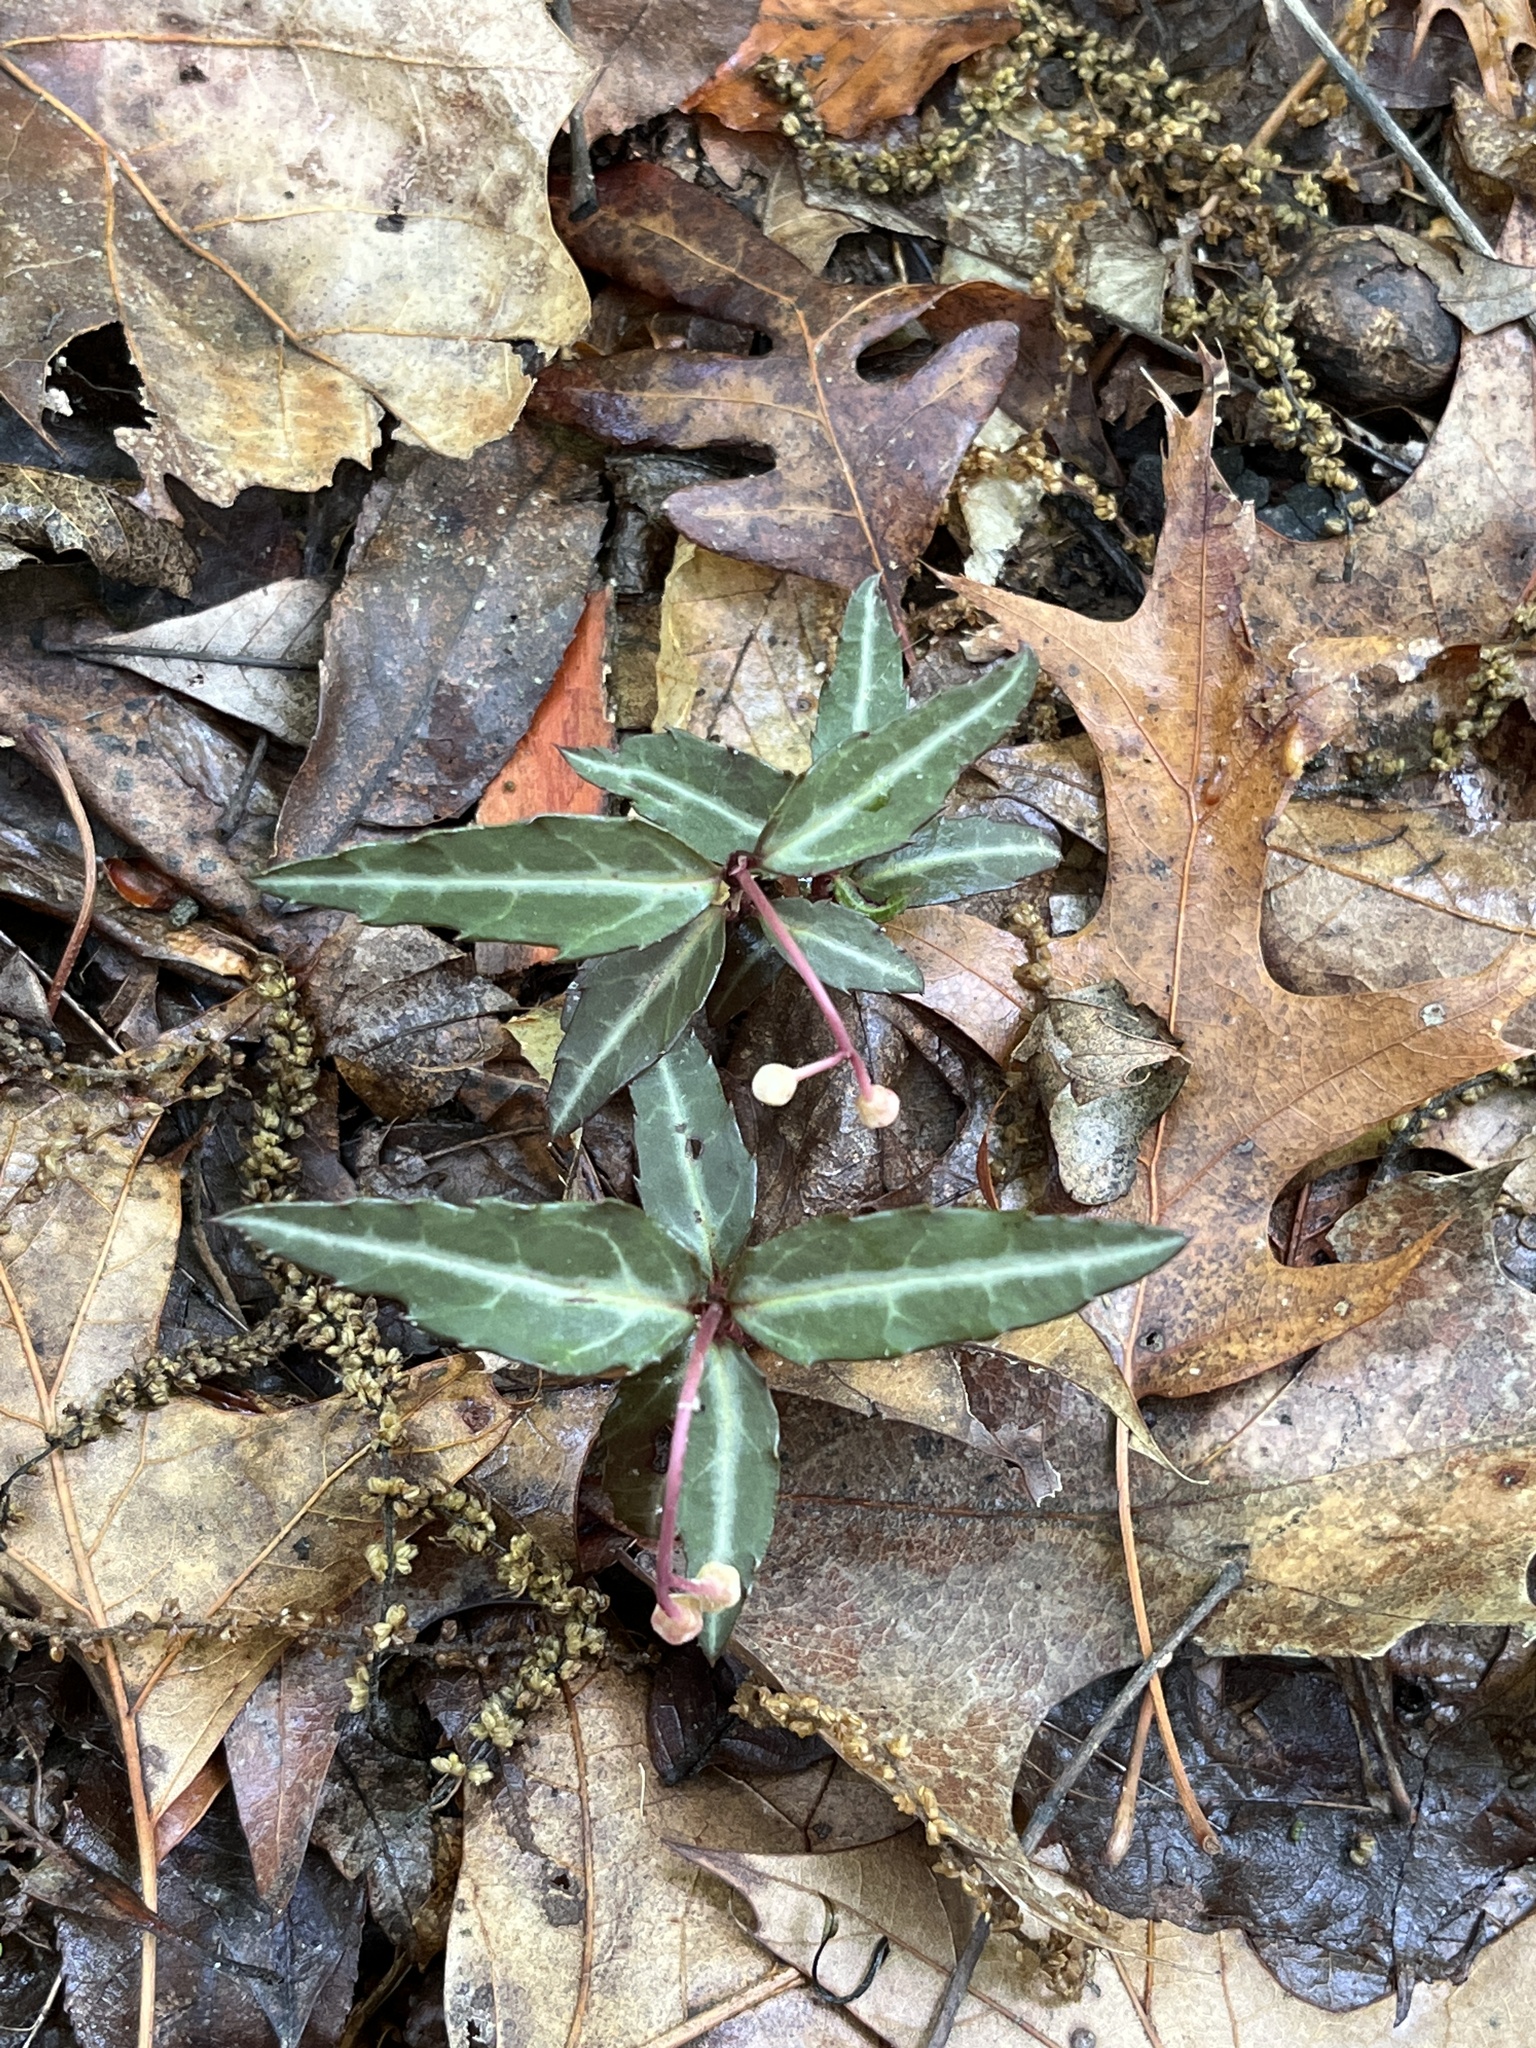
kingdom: Plantae
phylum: Tracheophyta
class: Magnoliopsida
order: Ericales
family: Ericaceae
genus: Chimaphila
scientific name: Chimaphila maculata
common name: Spotted pipsissewa
